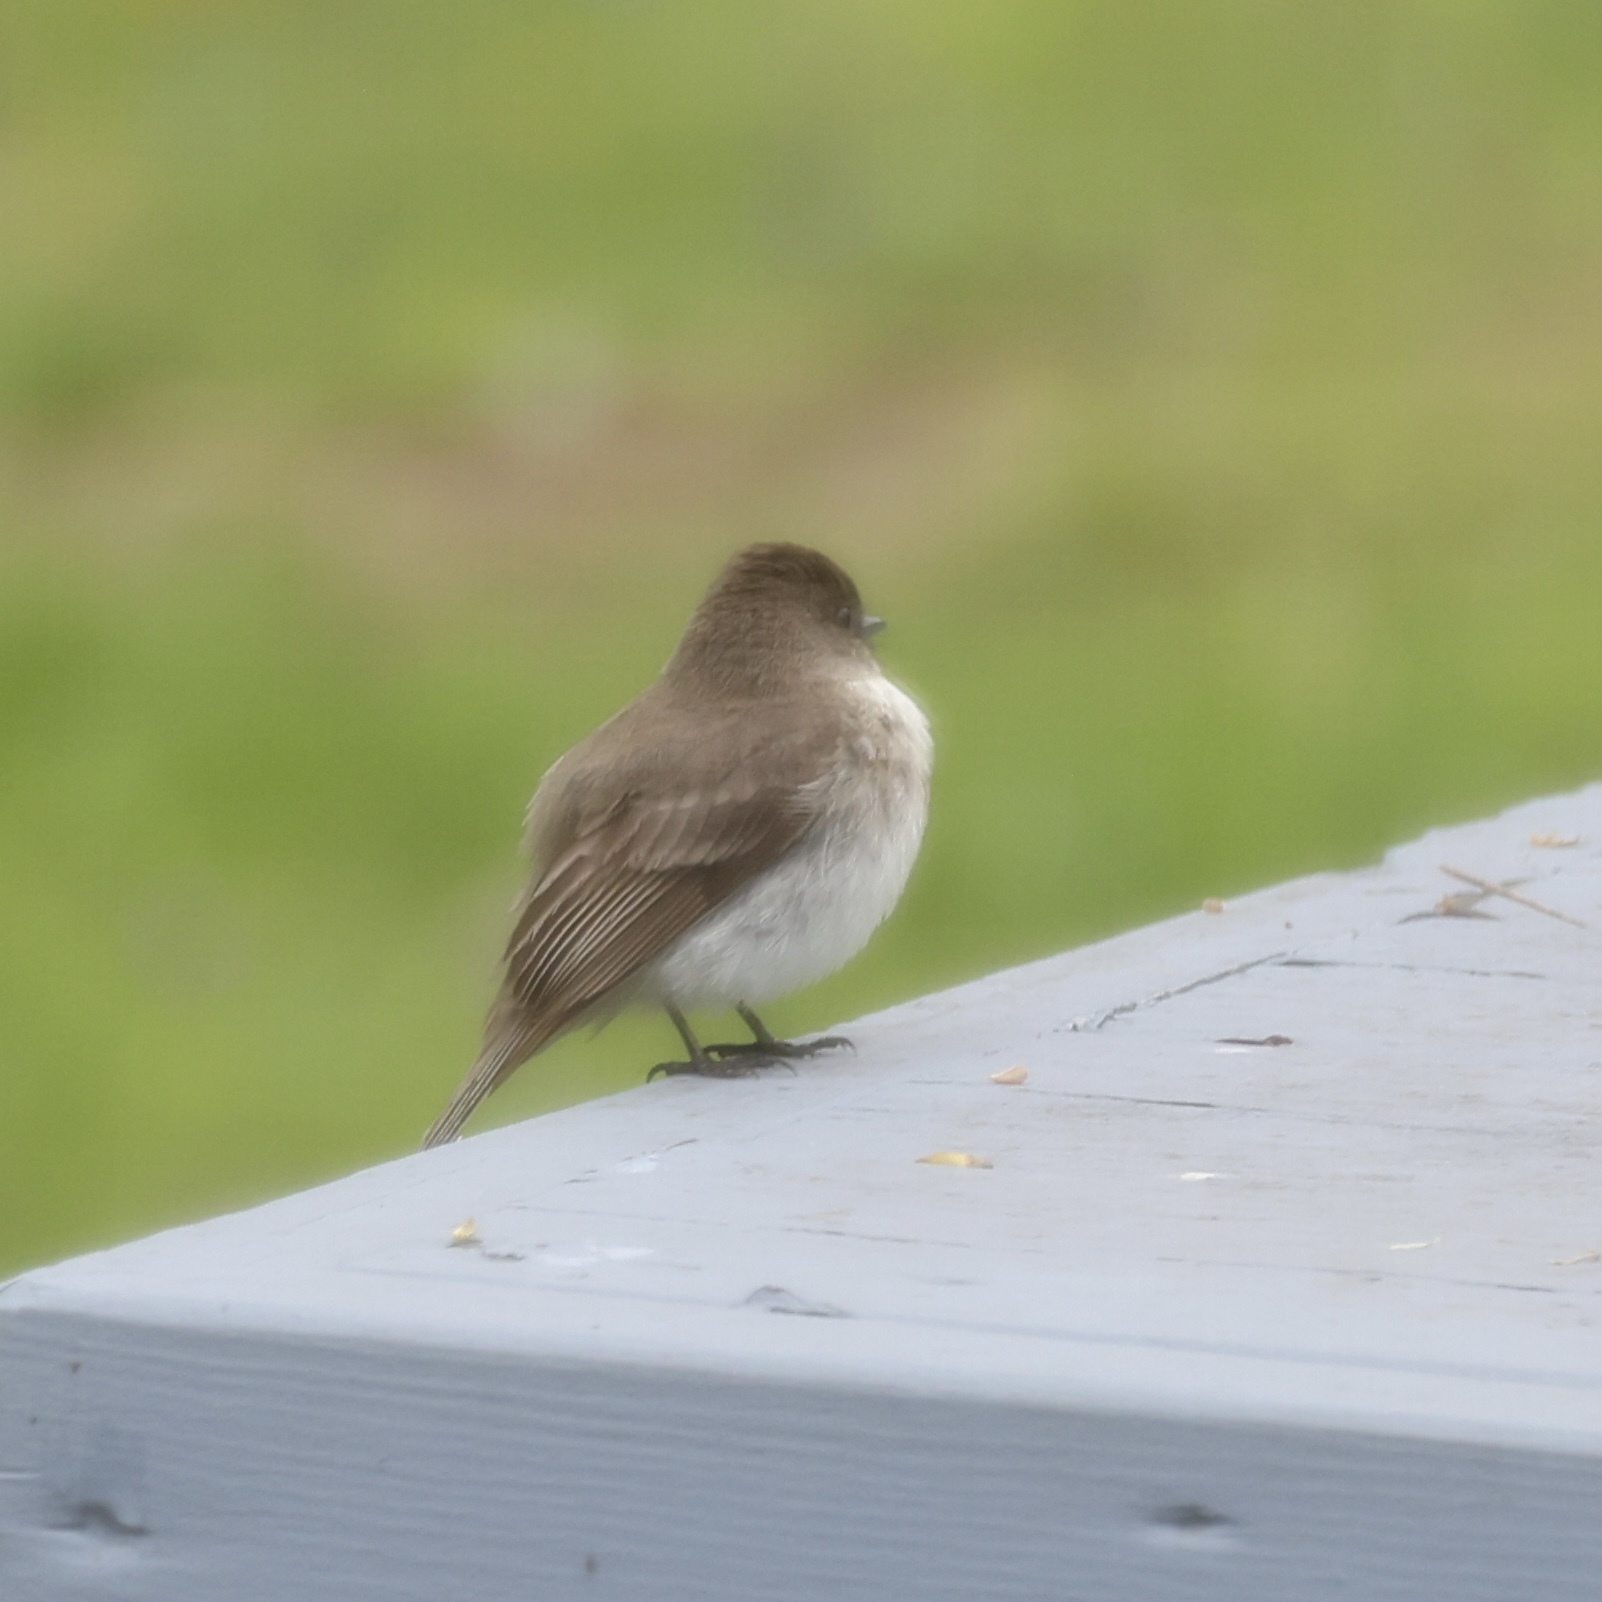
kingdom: Animalia
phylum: Chordata
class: Aves
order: Passeriformes
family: Tyrannidae
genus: Sayornis
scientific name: Sayornis phoebe
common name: Eastern phoebe
